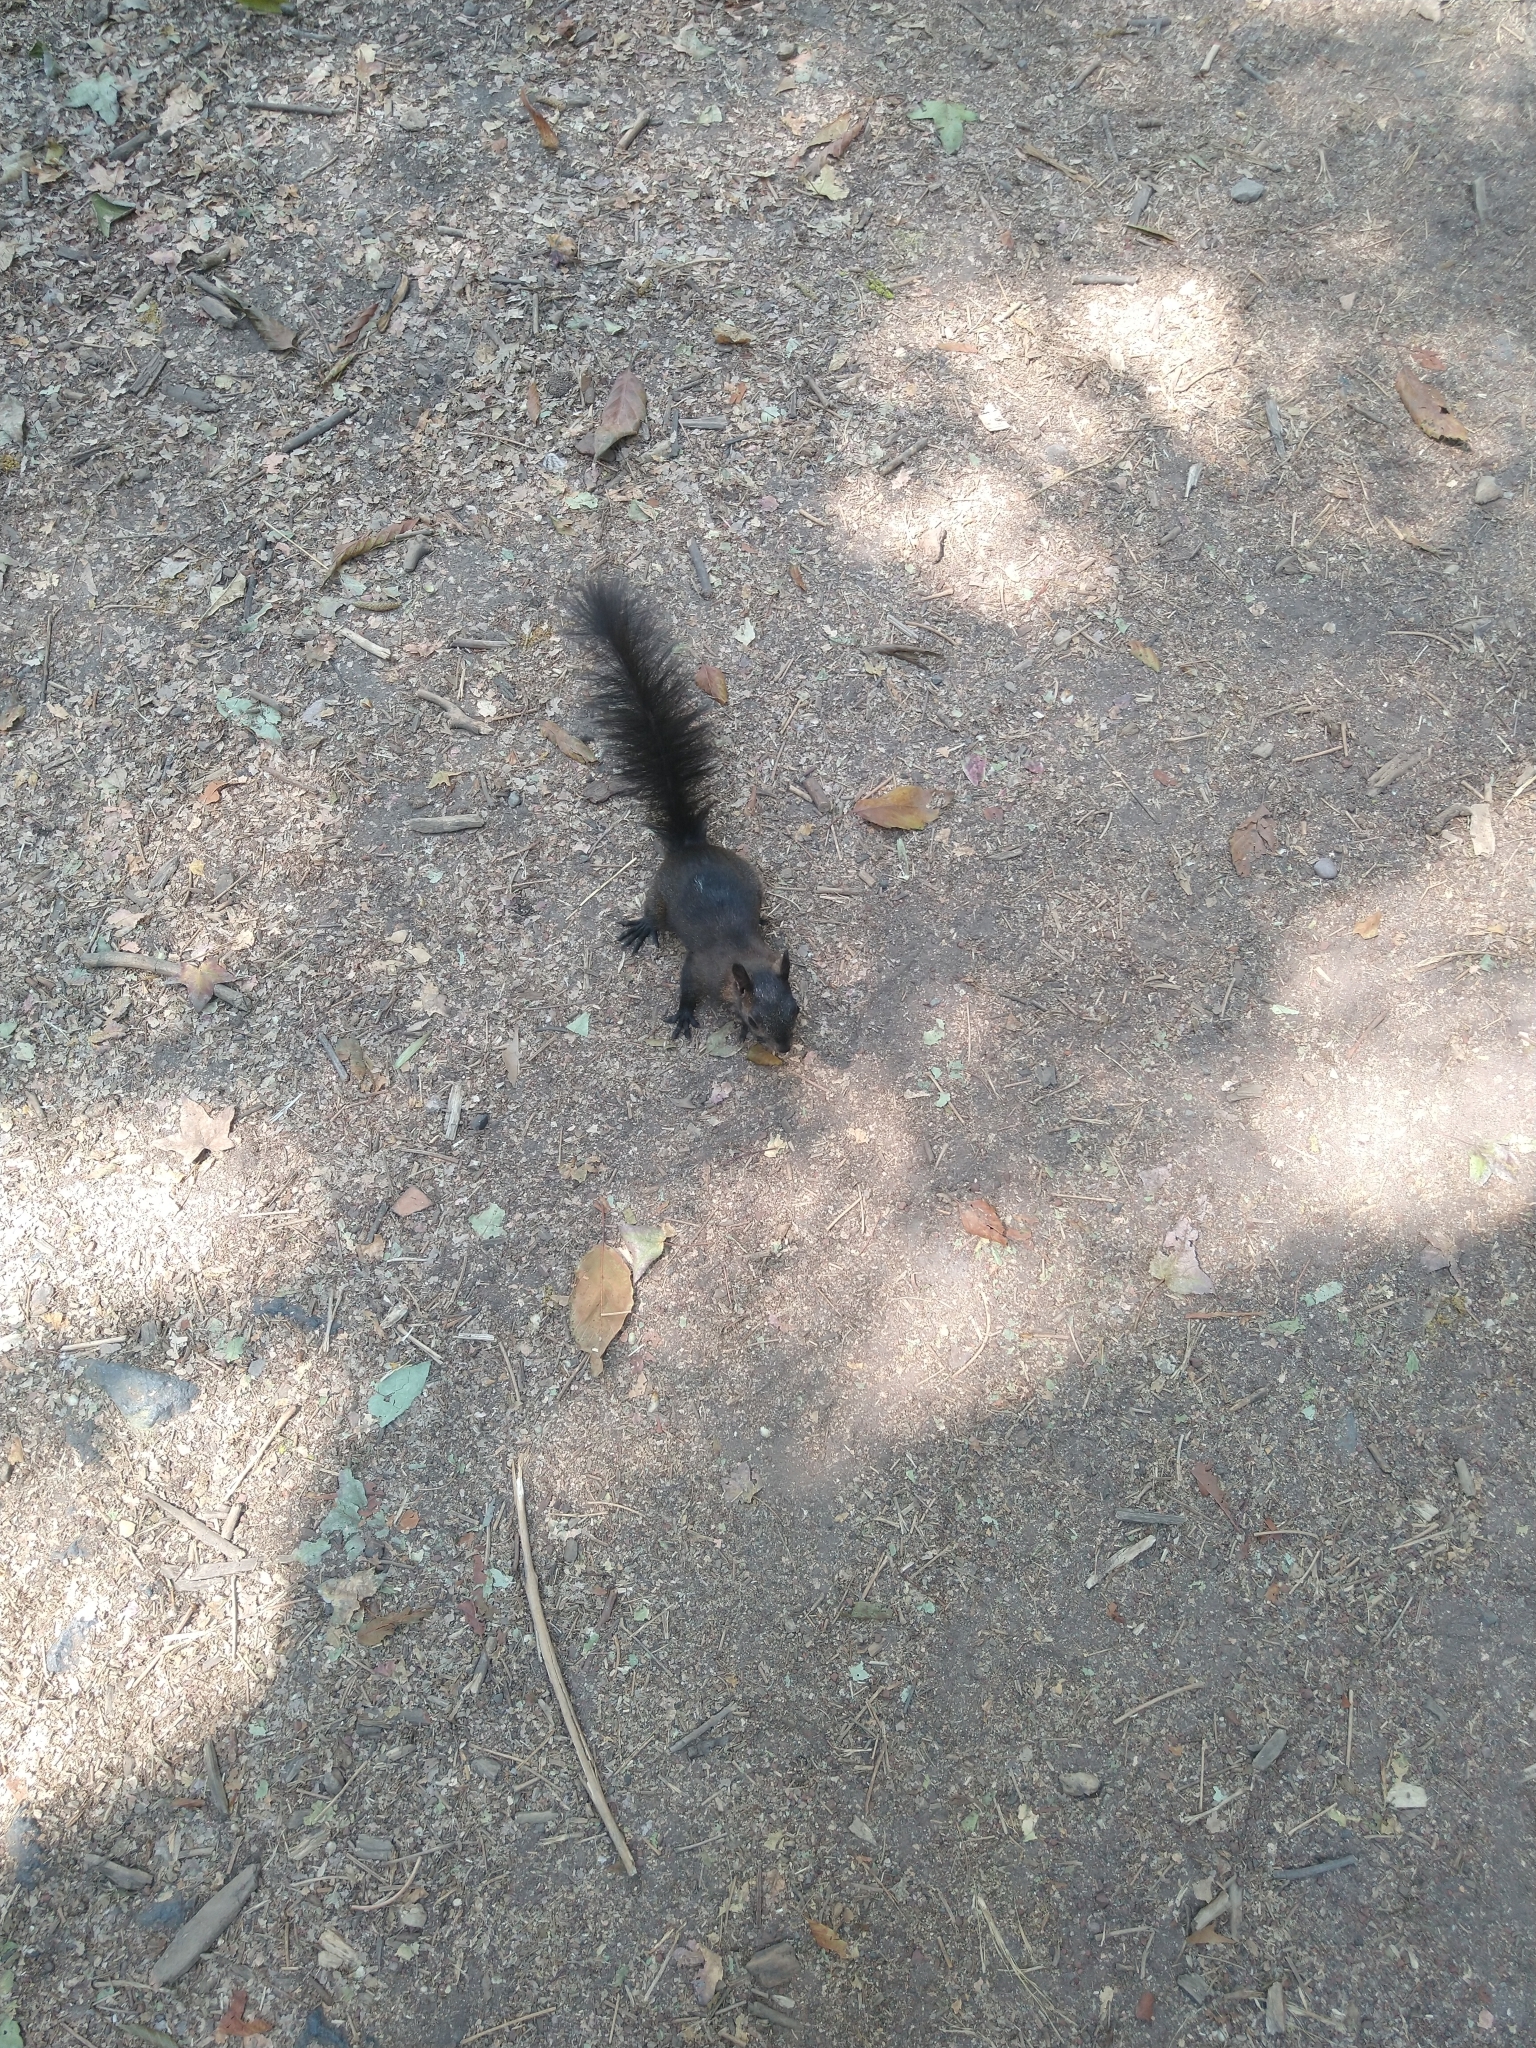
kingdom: Animalia
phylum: Chordata
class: Mammalia
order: Rodentia
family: Sciuridae
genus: Sciurus
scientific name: Sciurus aureogaster
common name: Red-bellied squirrel
